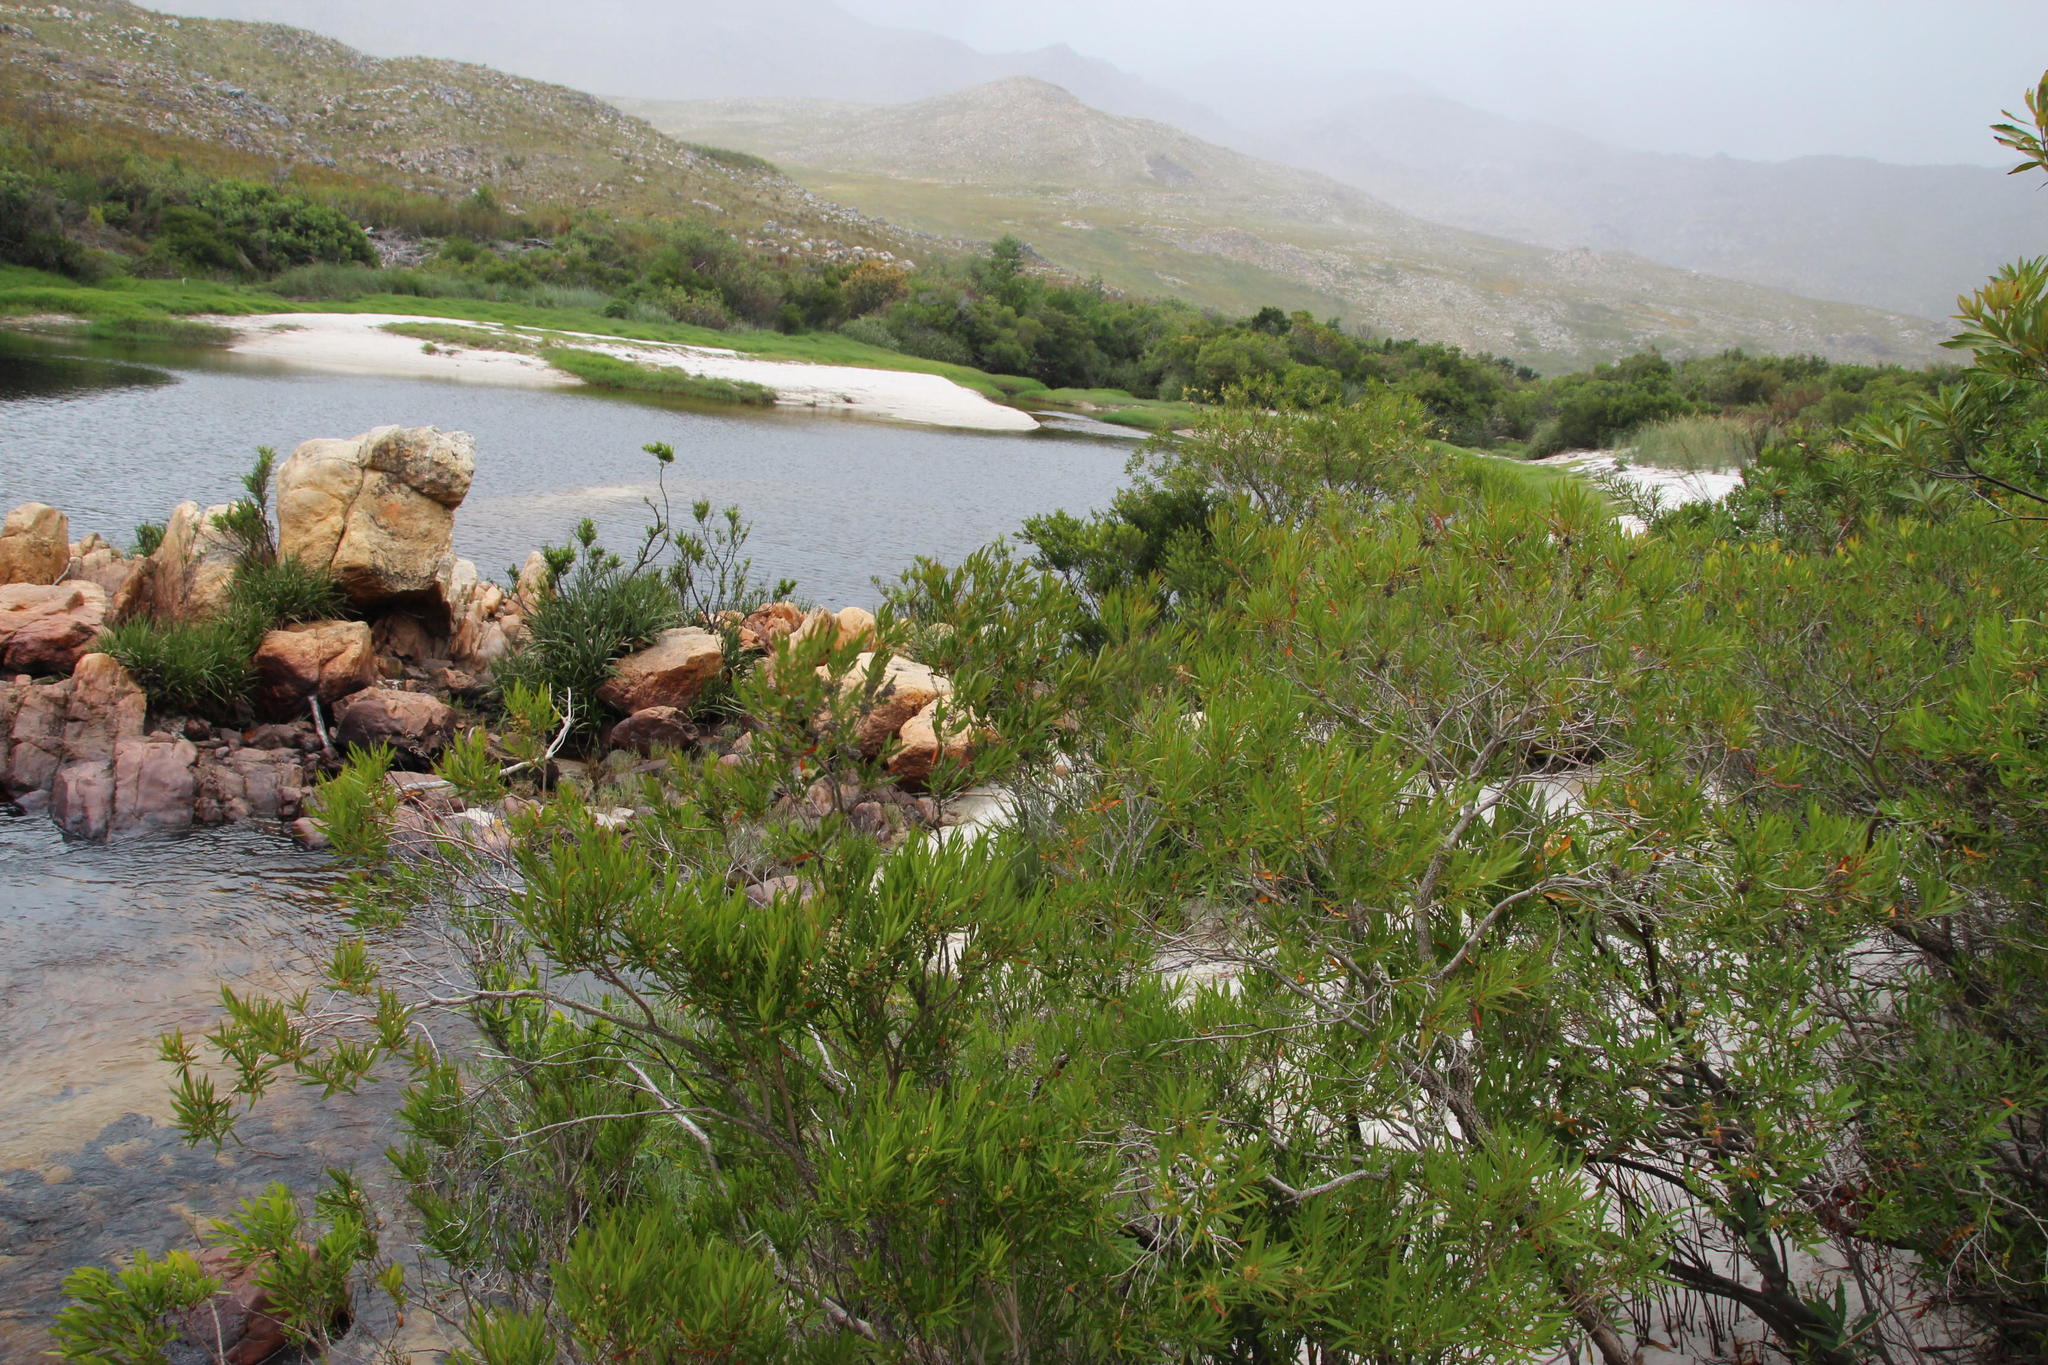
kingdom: Plantae
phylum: Tracheophyta
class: Magnoliopsida
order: Myrtales
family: Myrtaceae
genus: Callistemon
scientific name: Callistemon lanceolatus
